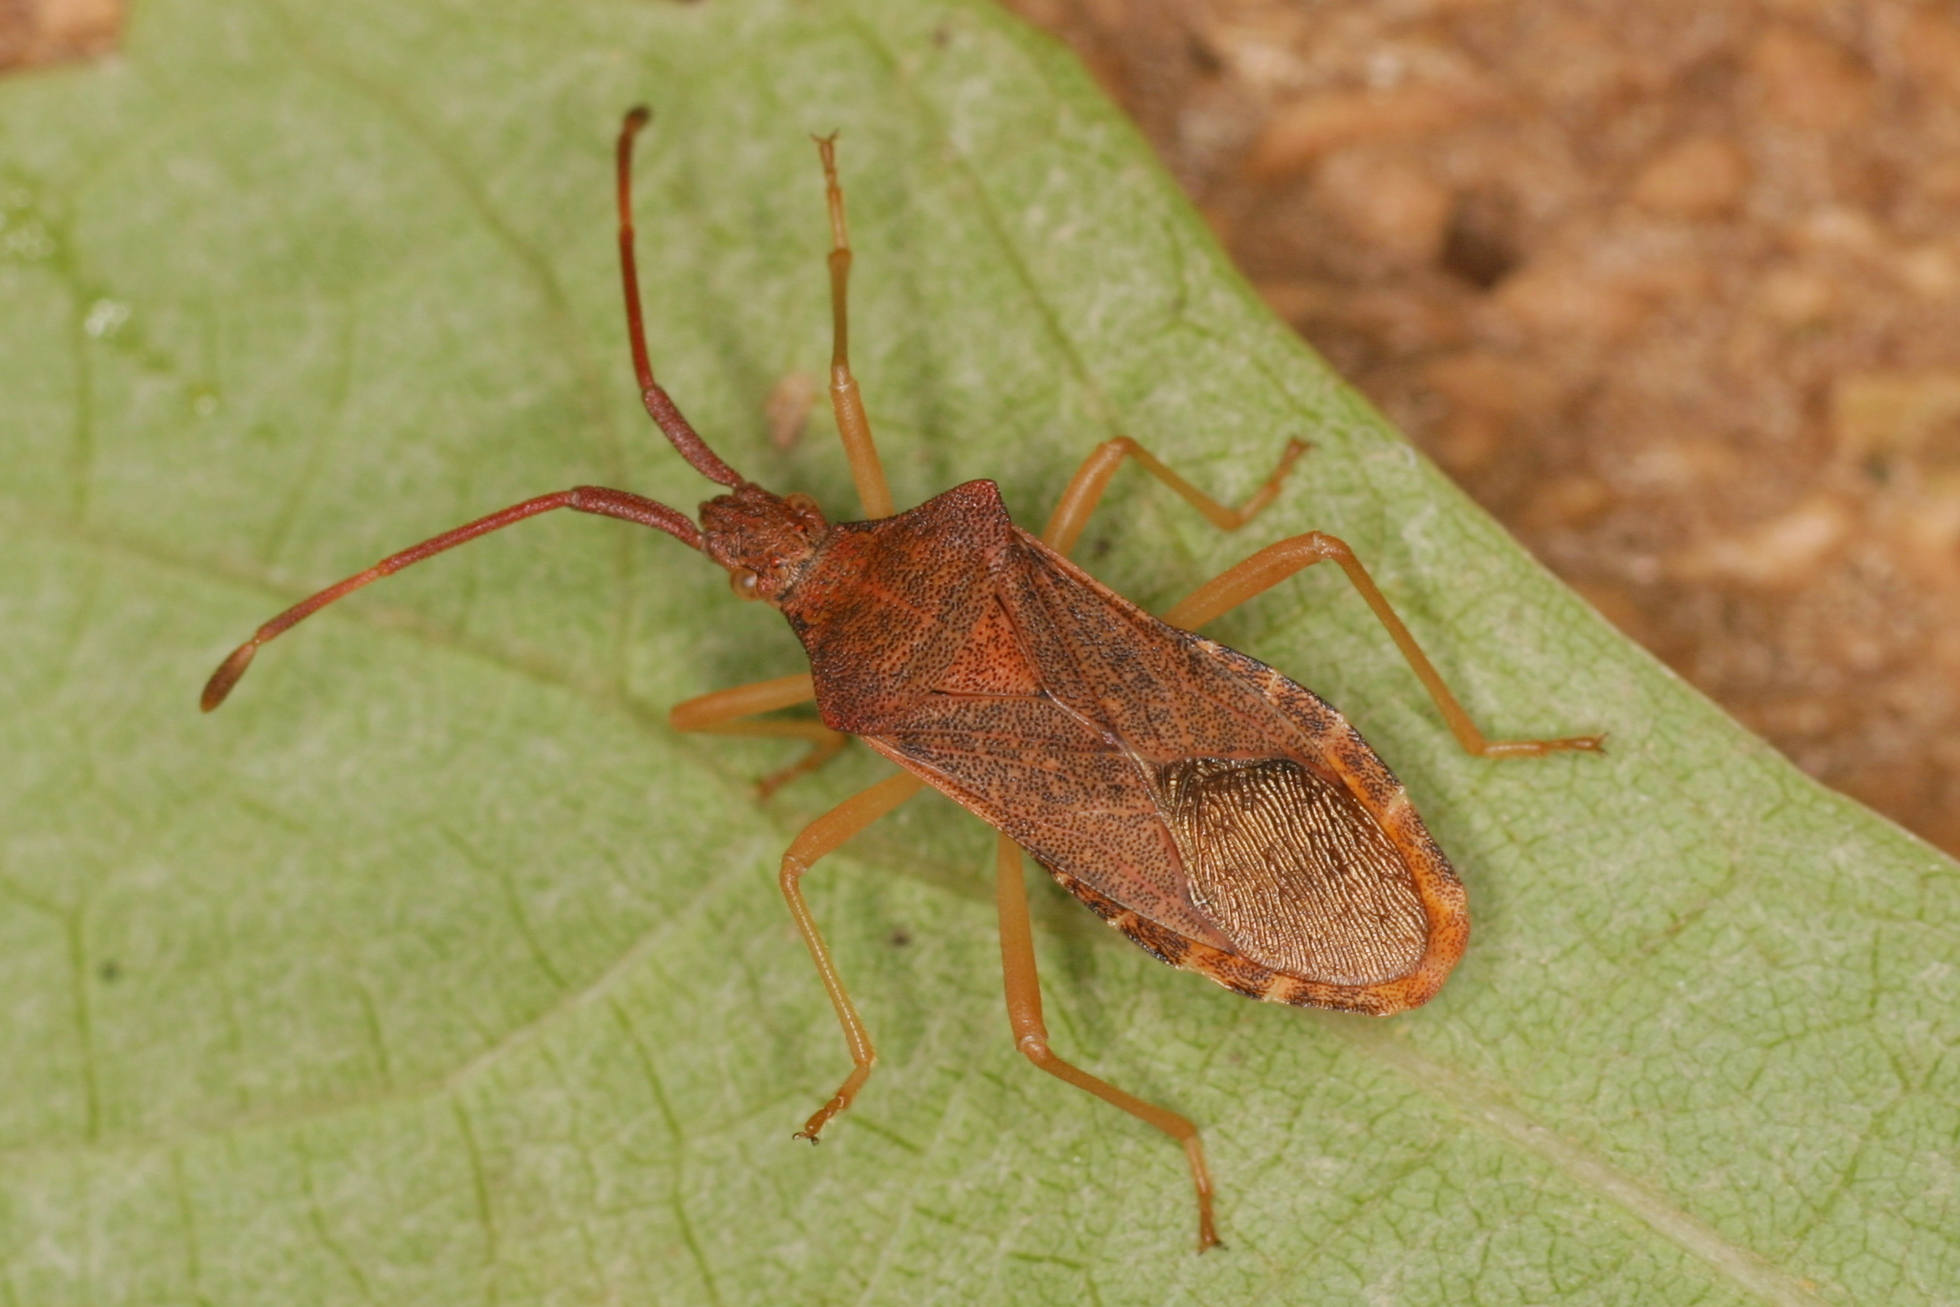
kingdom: Animalia
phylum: Arthropoda
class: Insecta
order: Hemiptera
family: Coreidae
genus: Gonocerus
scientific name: Gonocerus acuteangulatus
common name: Box bug
